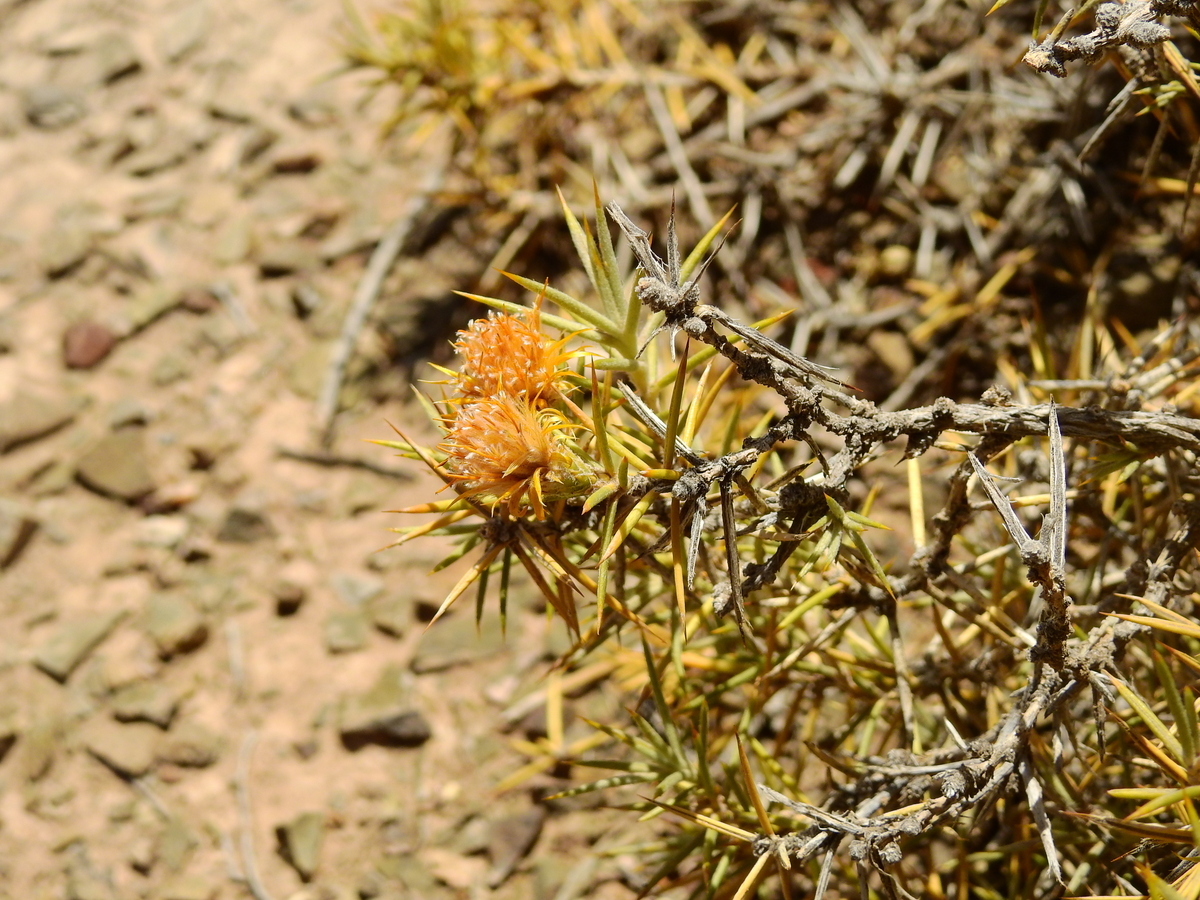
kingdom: Plantae
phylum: Tracheophyta
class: Magnoliopsida
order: Asterales
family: Asteraceae
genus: Chuquiraga
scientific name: Chuquiraga erinacea
